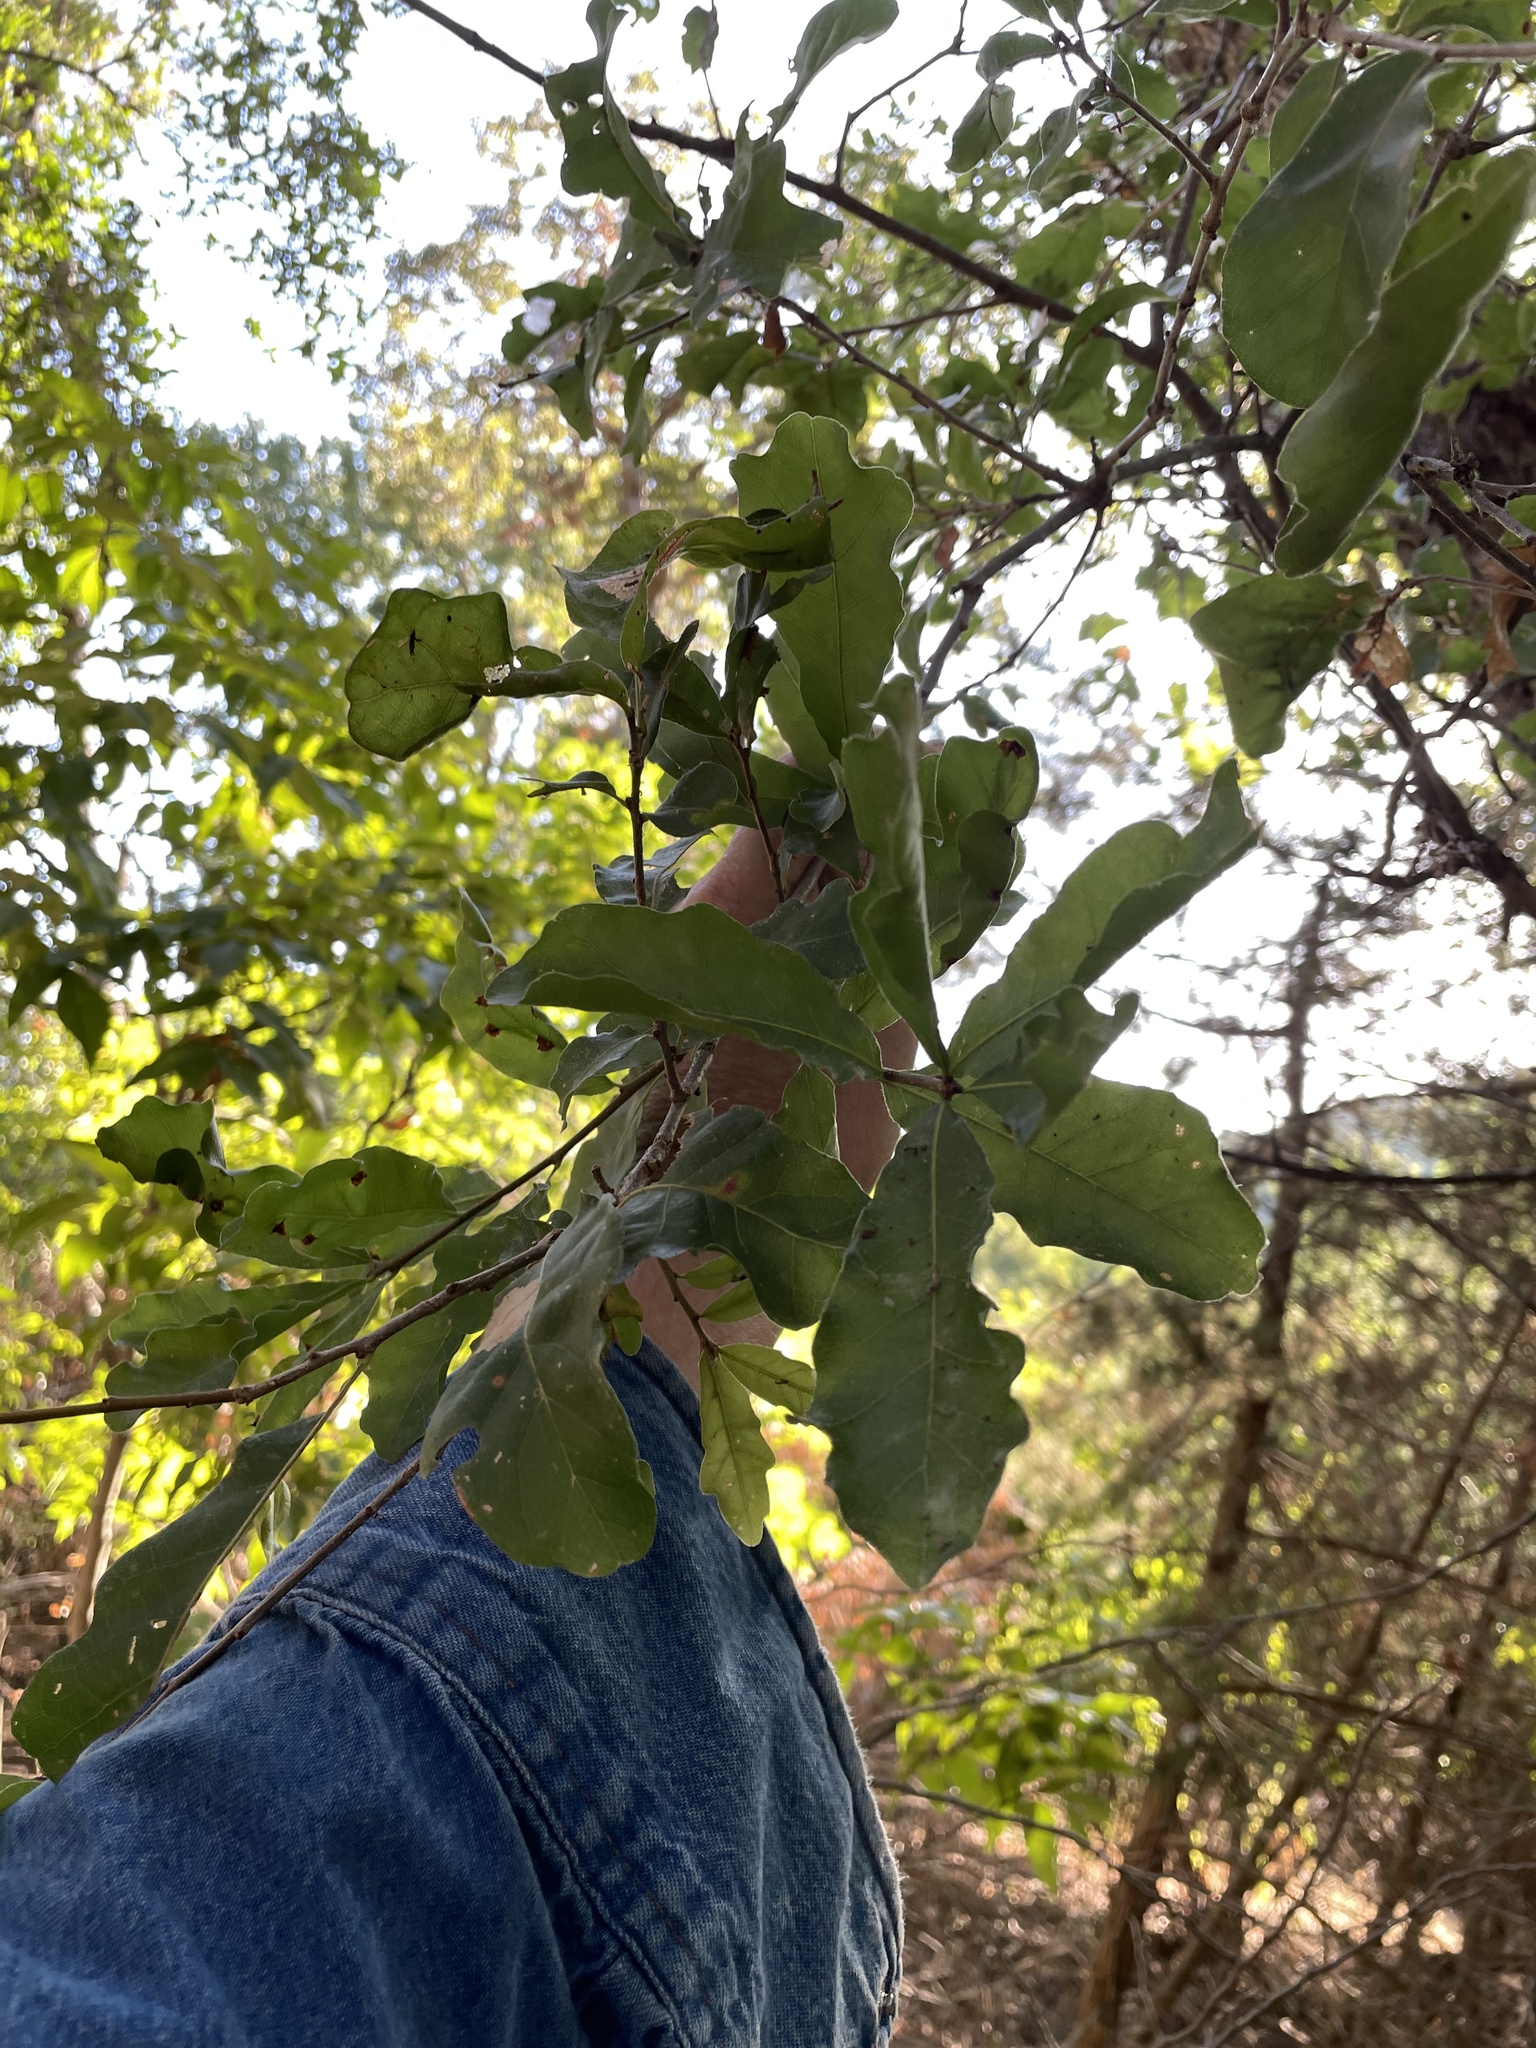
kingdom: Plantae
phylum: Tracheophyta
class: Magnoliopsida
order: Fagales
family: Fagaceae
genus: Quercus
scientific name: Quercus sinuata
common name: Durand oak
